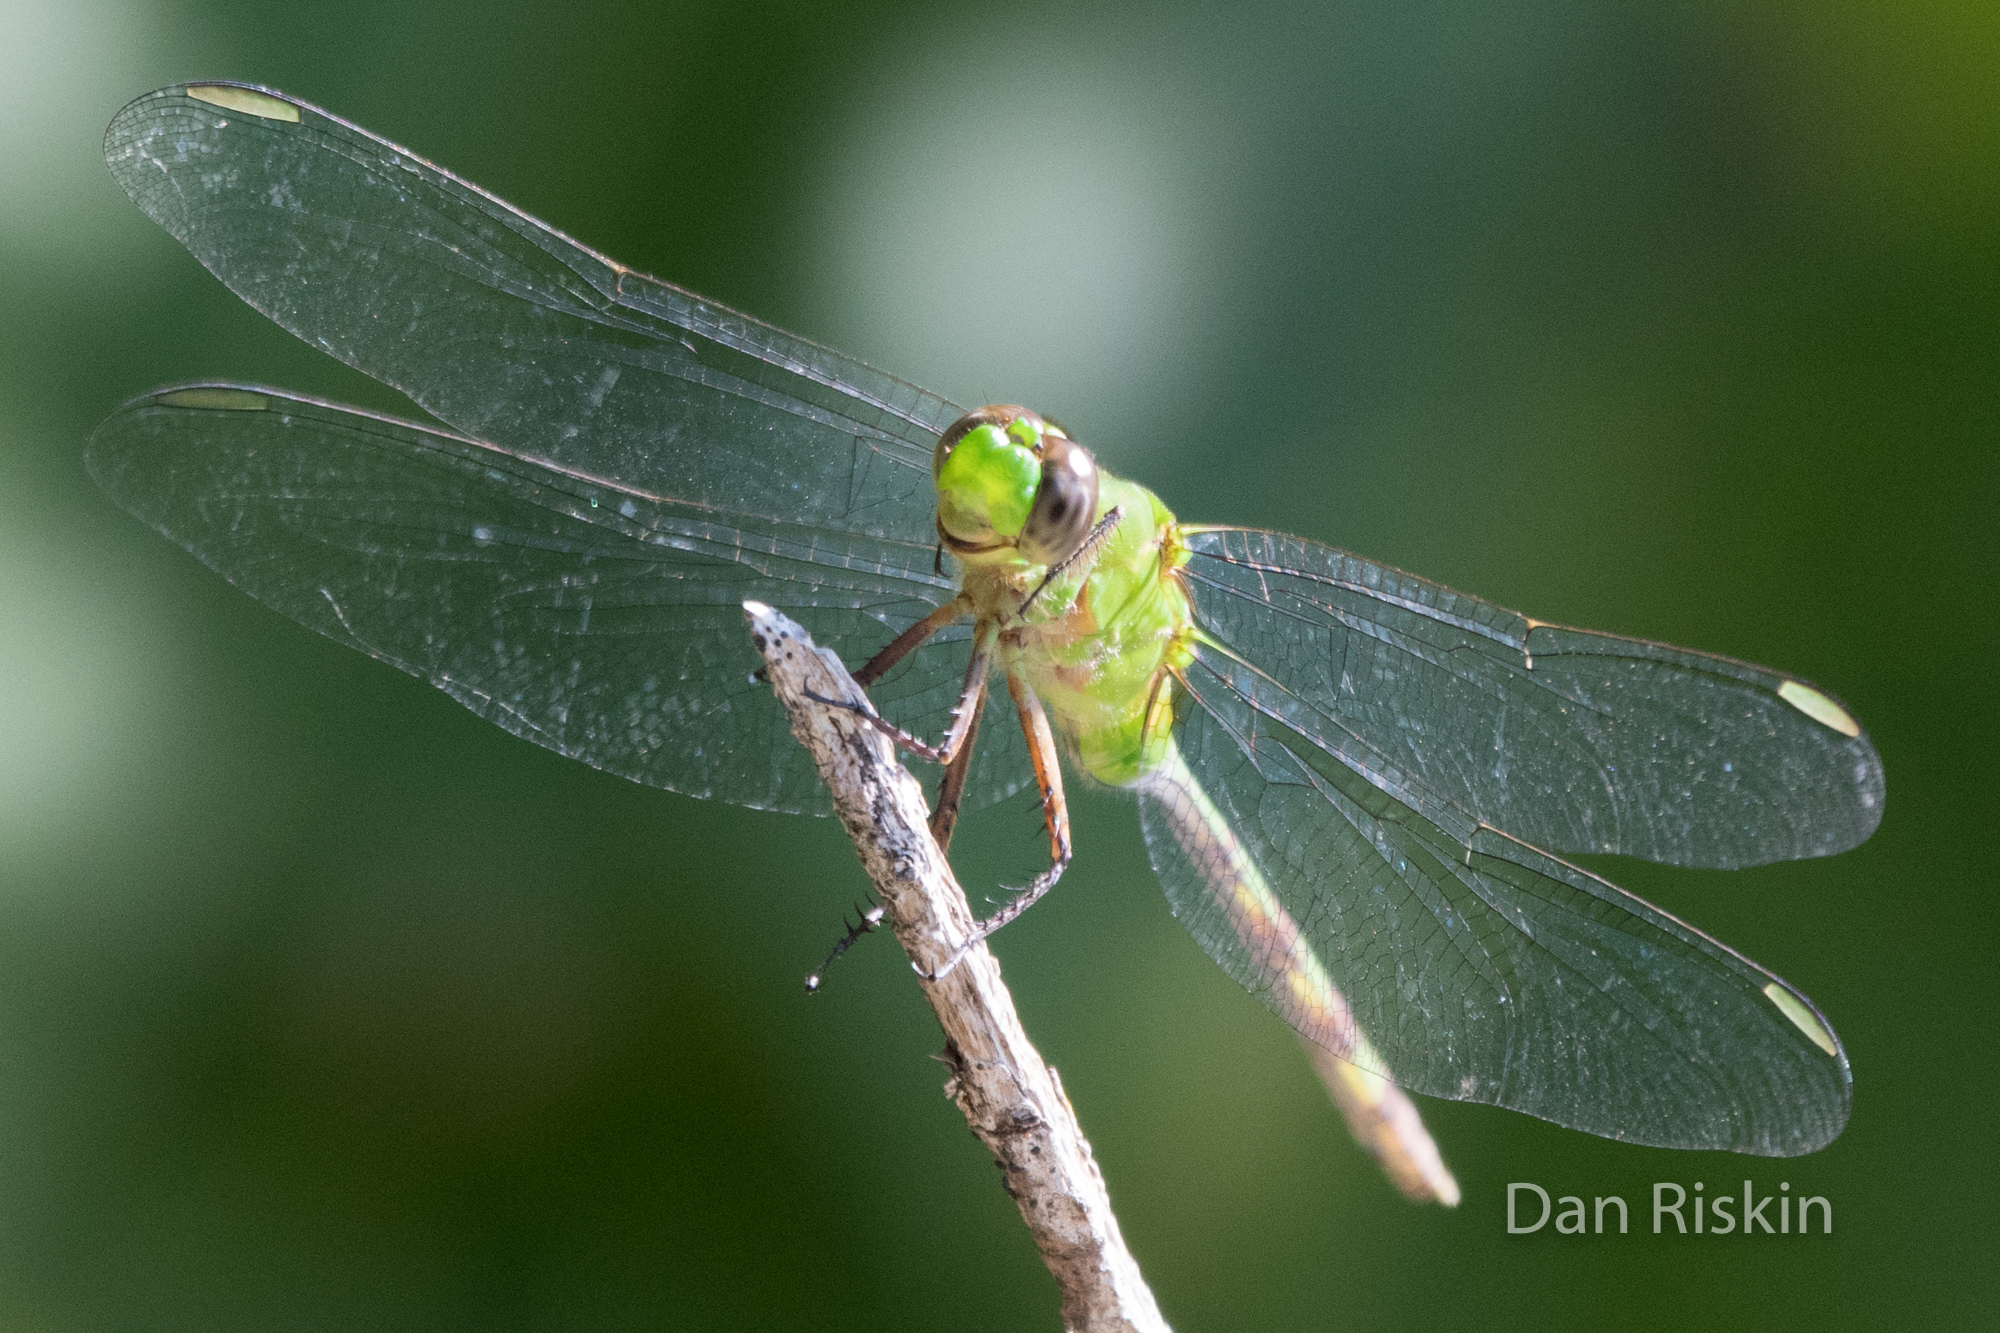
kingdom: Animalia
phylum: Arthropoda
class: Insecta
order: Odonata
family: Libellulidae
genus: Erythemis
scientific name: Erythemis vesiculosa
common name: Great pondhawk
